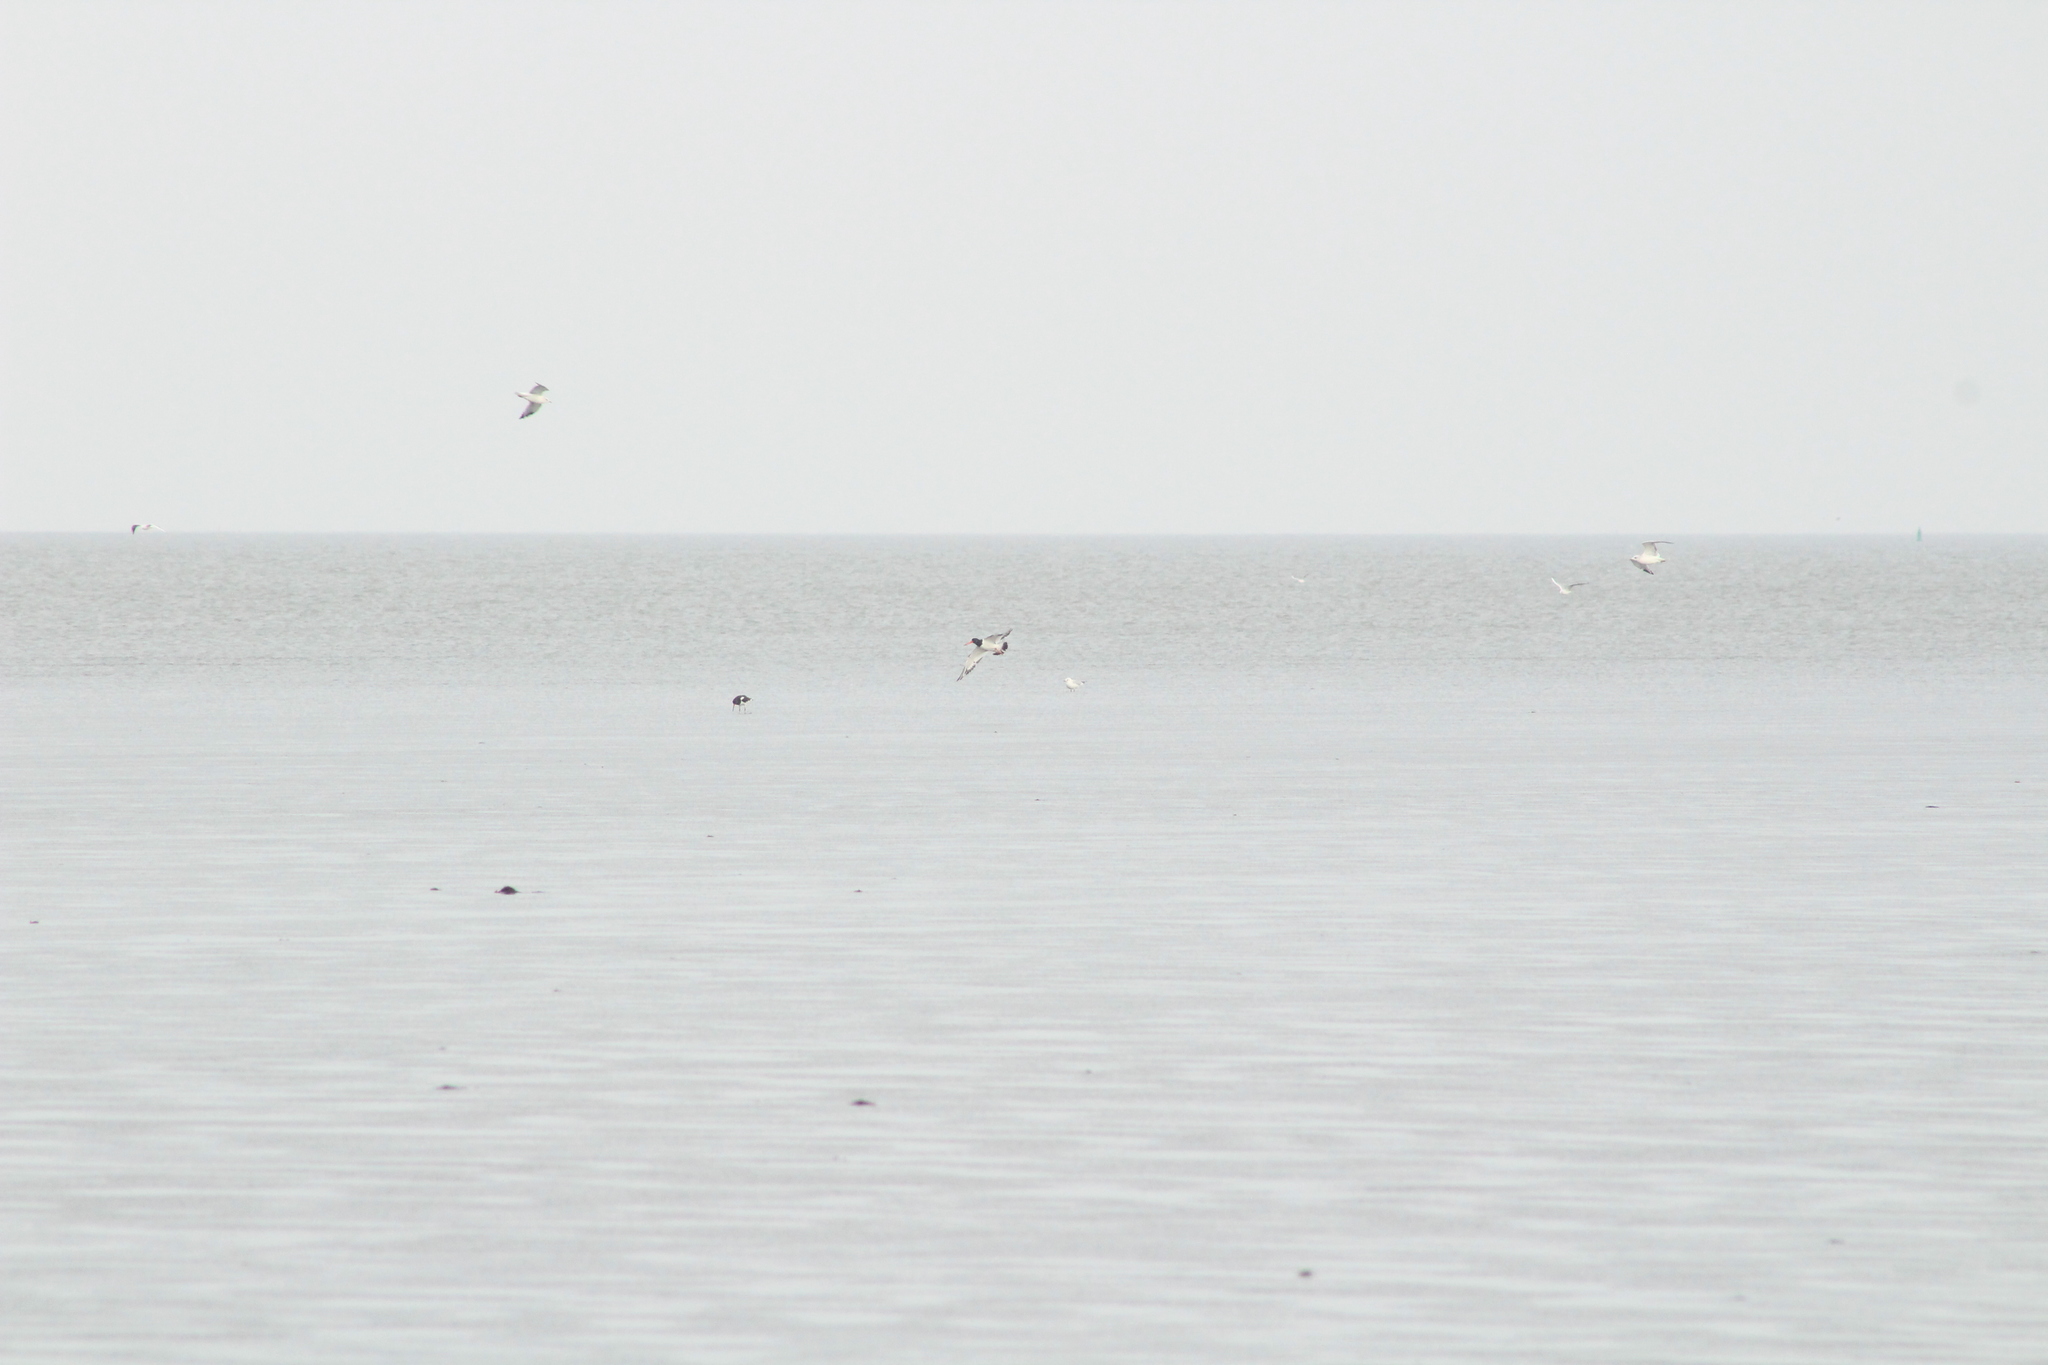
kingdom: Animalia
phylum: Chordata
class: Aves
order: Charadriiformes
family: Haematopodidae
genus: Haematopus
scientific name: Haematopus ostralegus
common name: Eurasian oystercatcher
